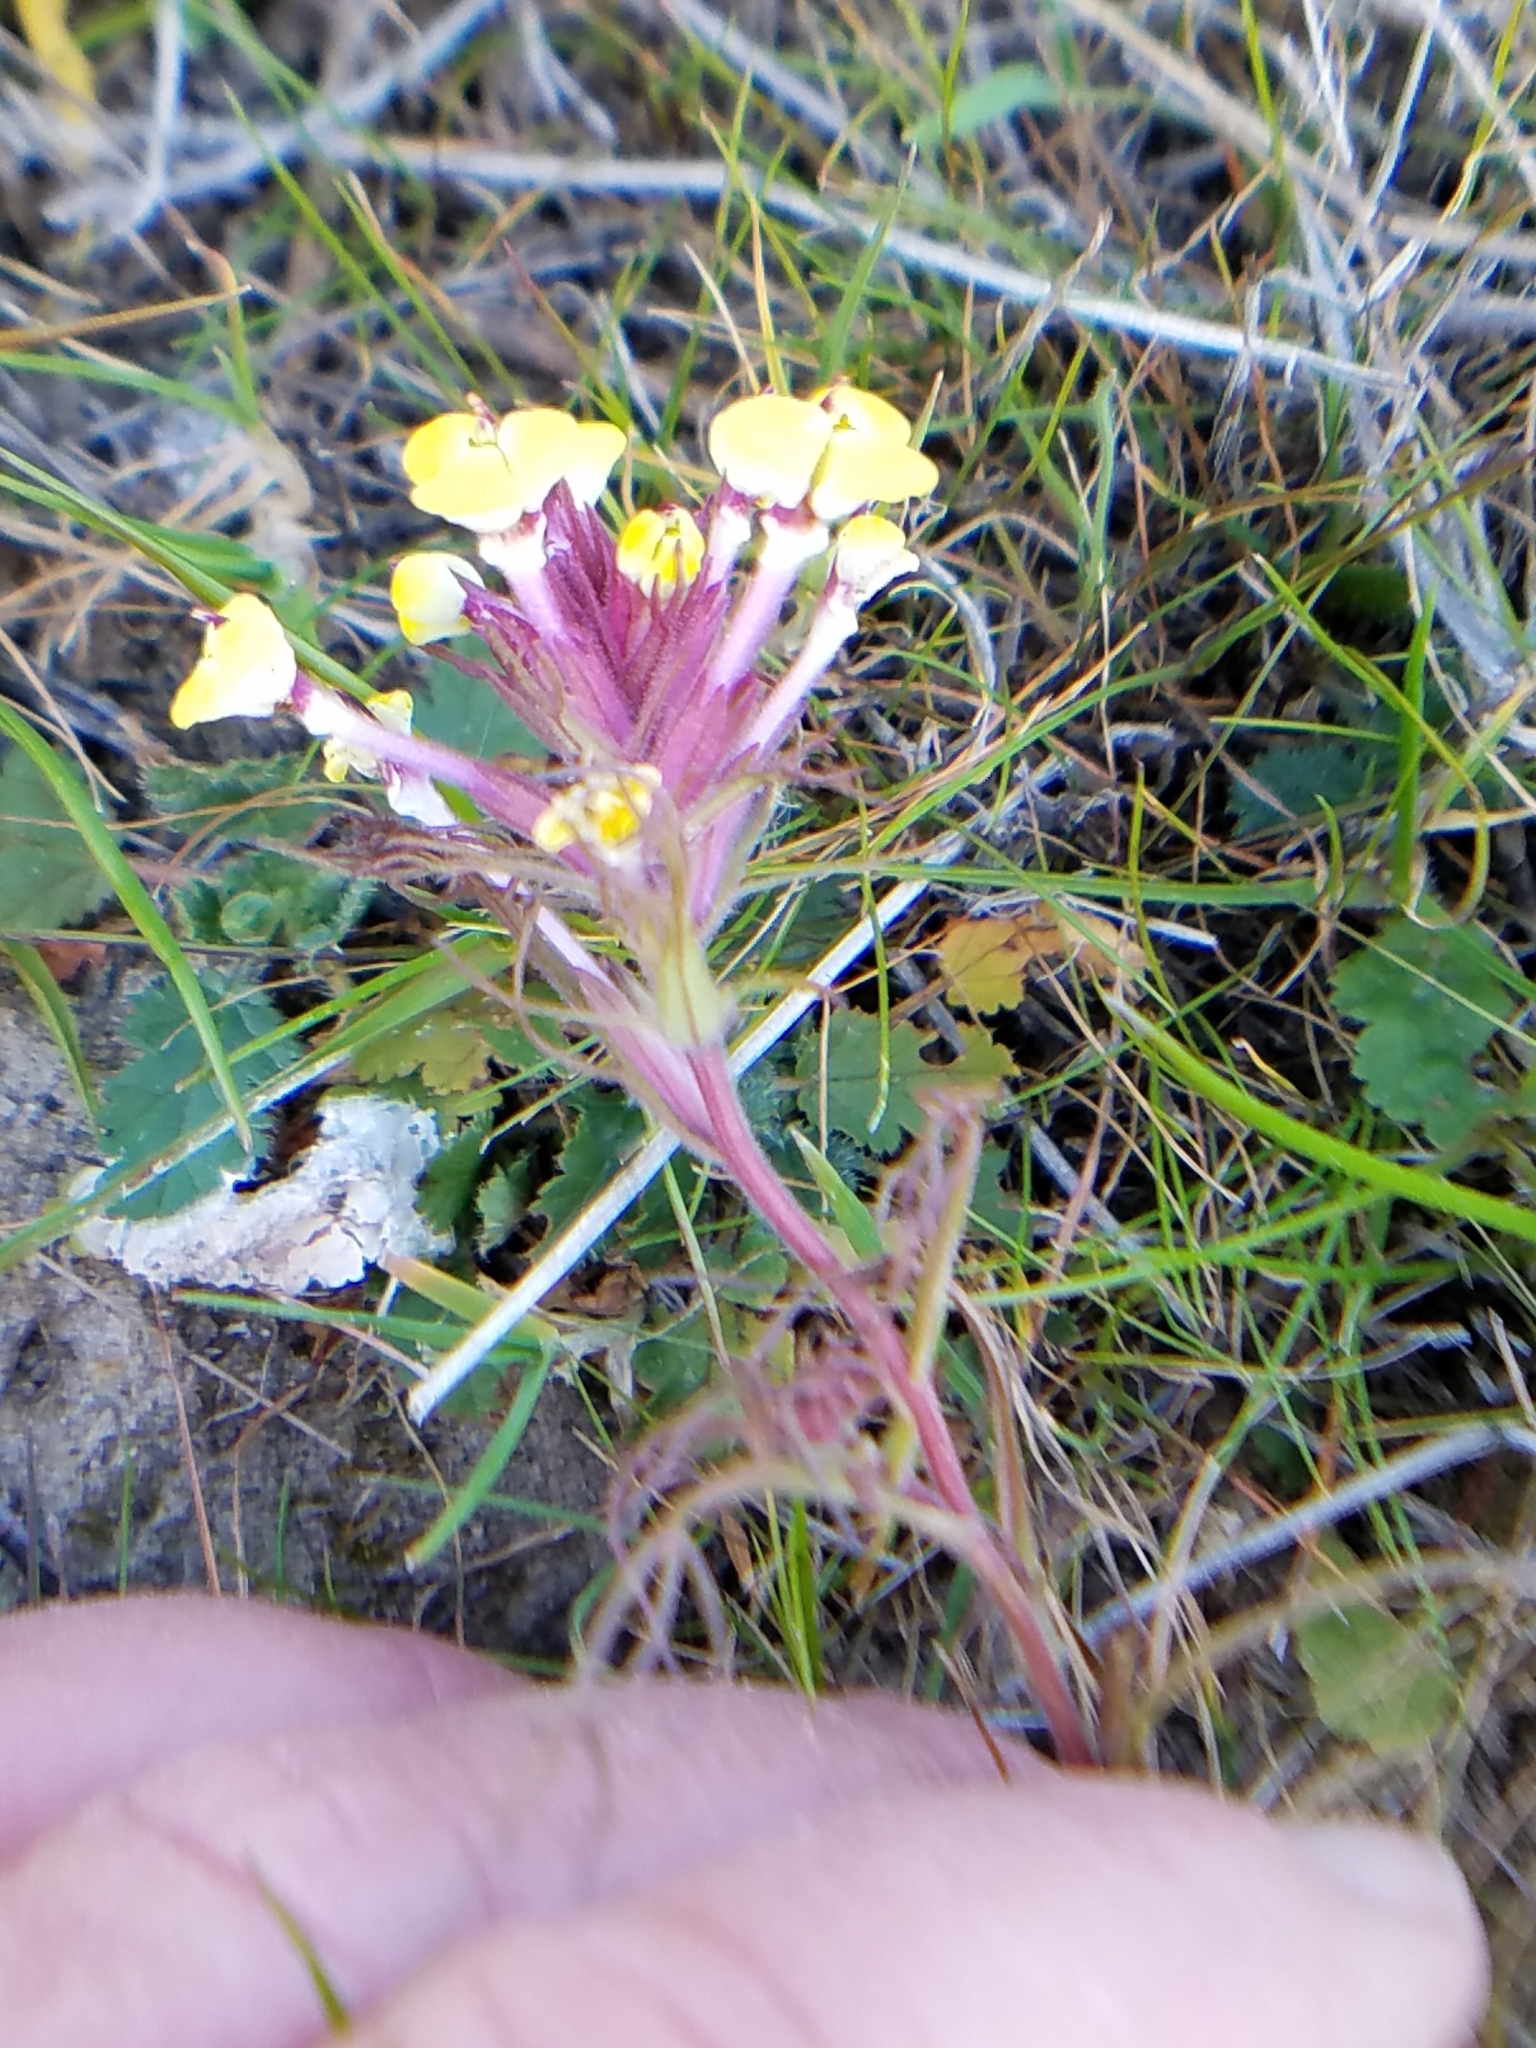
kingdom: Plantae
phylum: Tracheophyta
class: Magnoliopsida
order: Lamiales
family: Orobanchaceae
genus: Triphysaria
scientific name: Triphysaria eriantha
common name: Johnny-tuck
